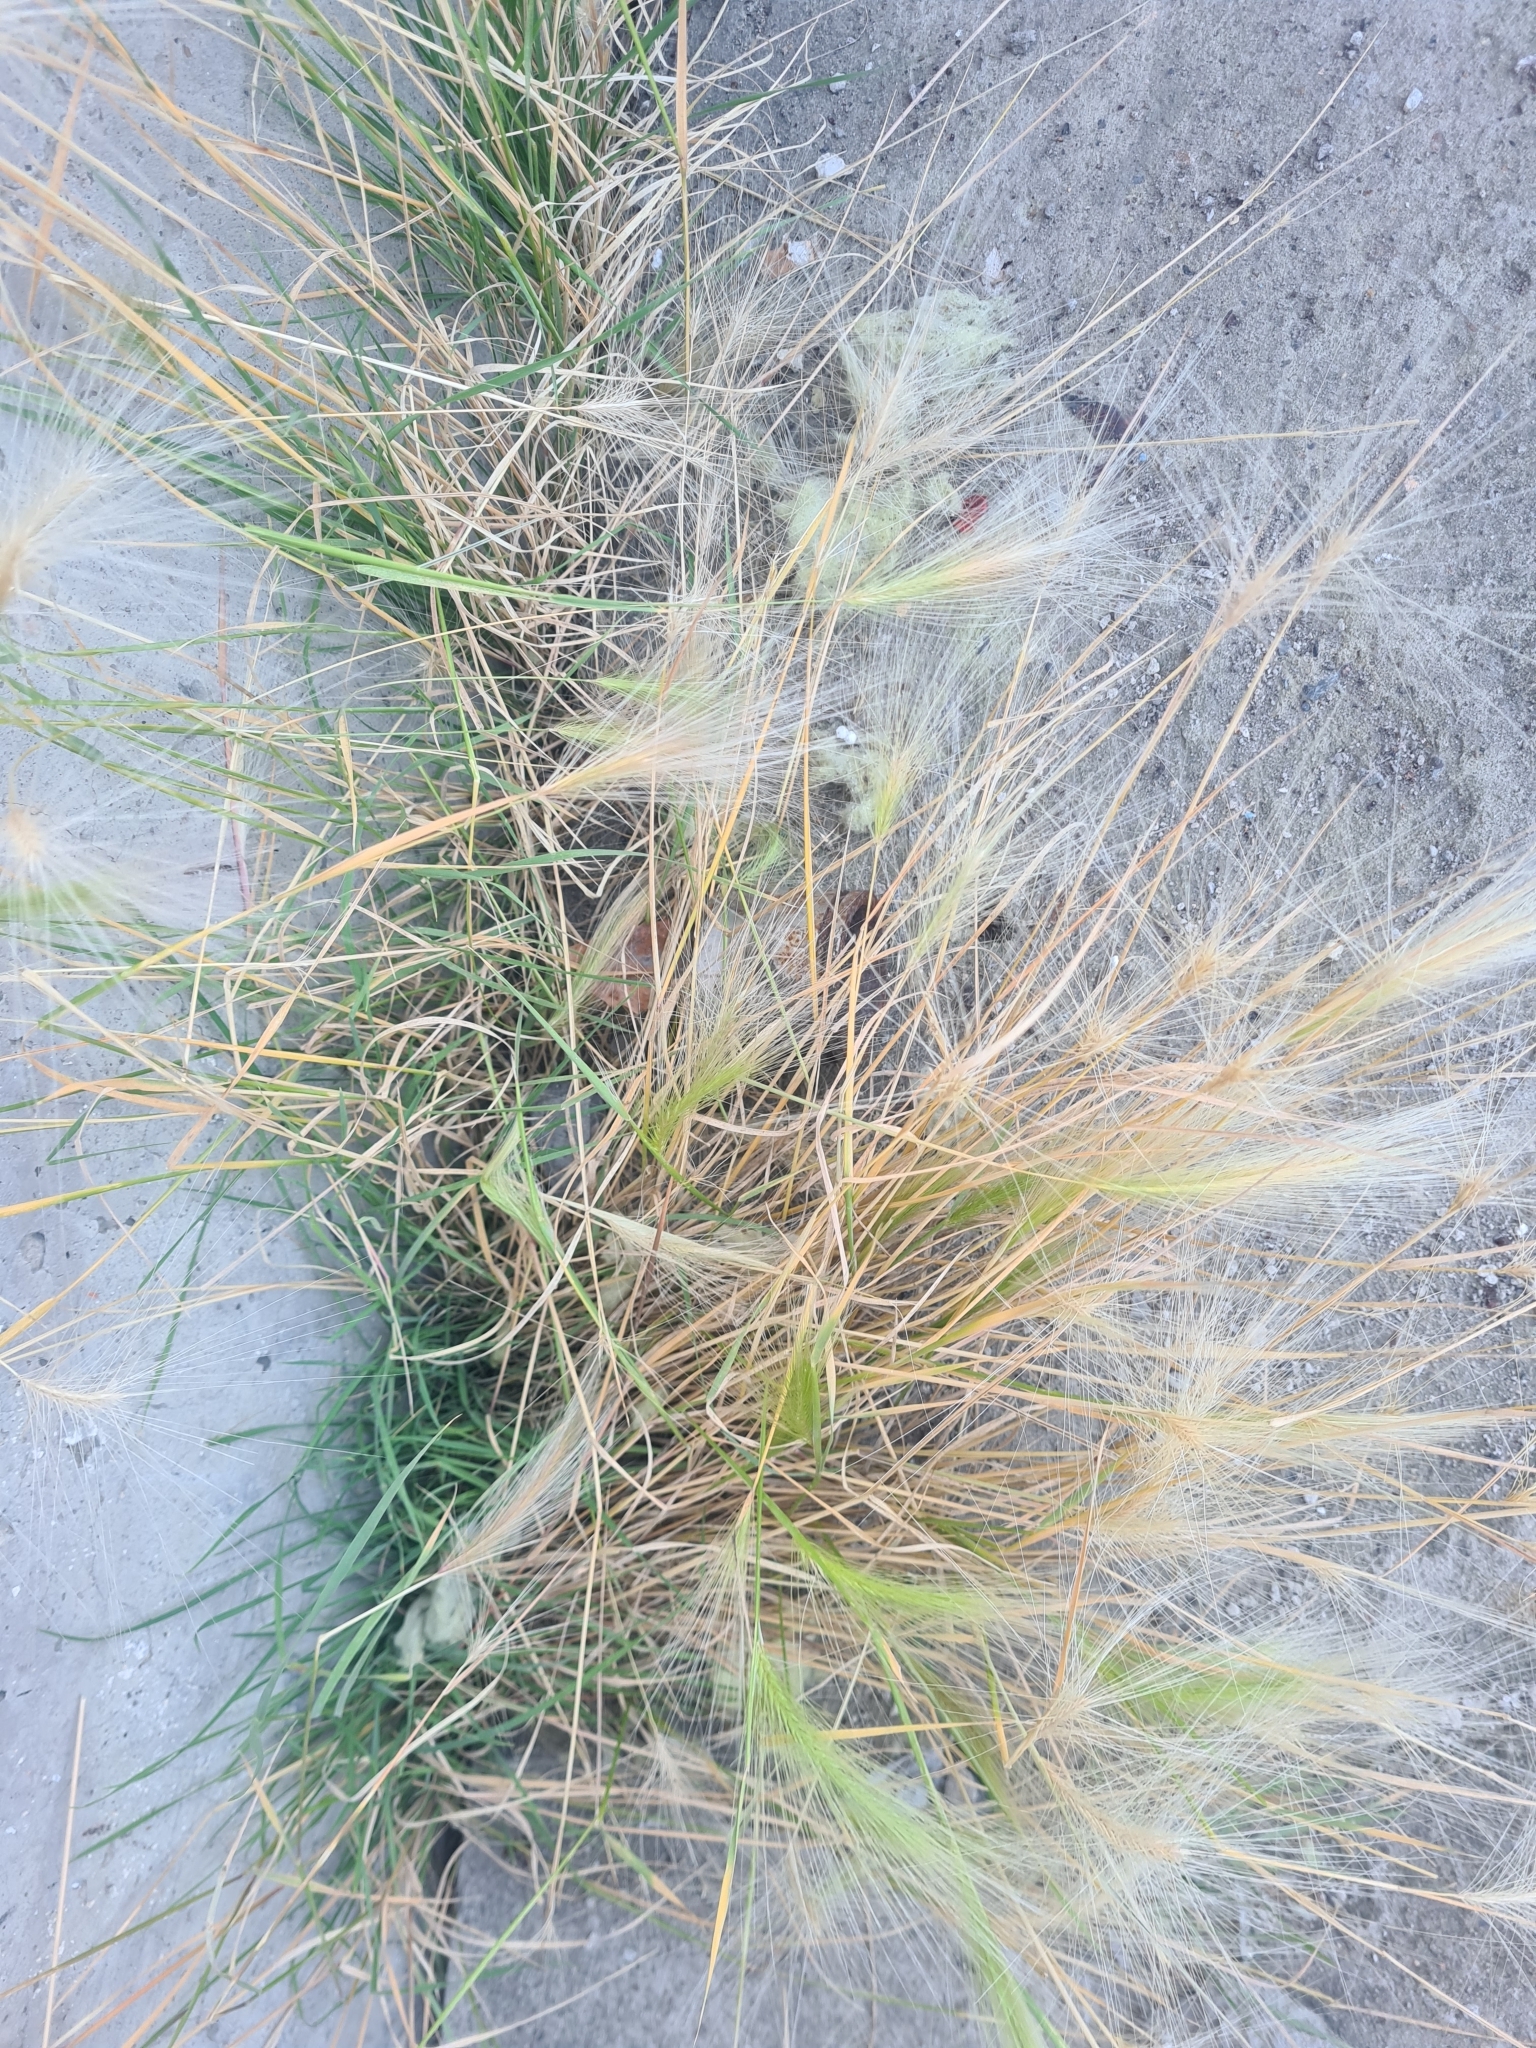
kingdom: Plantae
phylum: Tracheophyta
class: Liliopsida
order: Poales
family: Poaceae
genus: Hordeum
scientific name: Hordeum jubatum
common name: Foxtail barley
